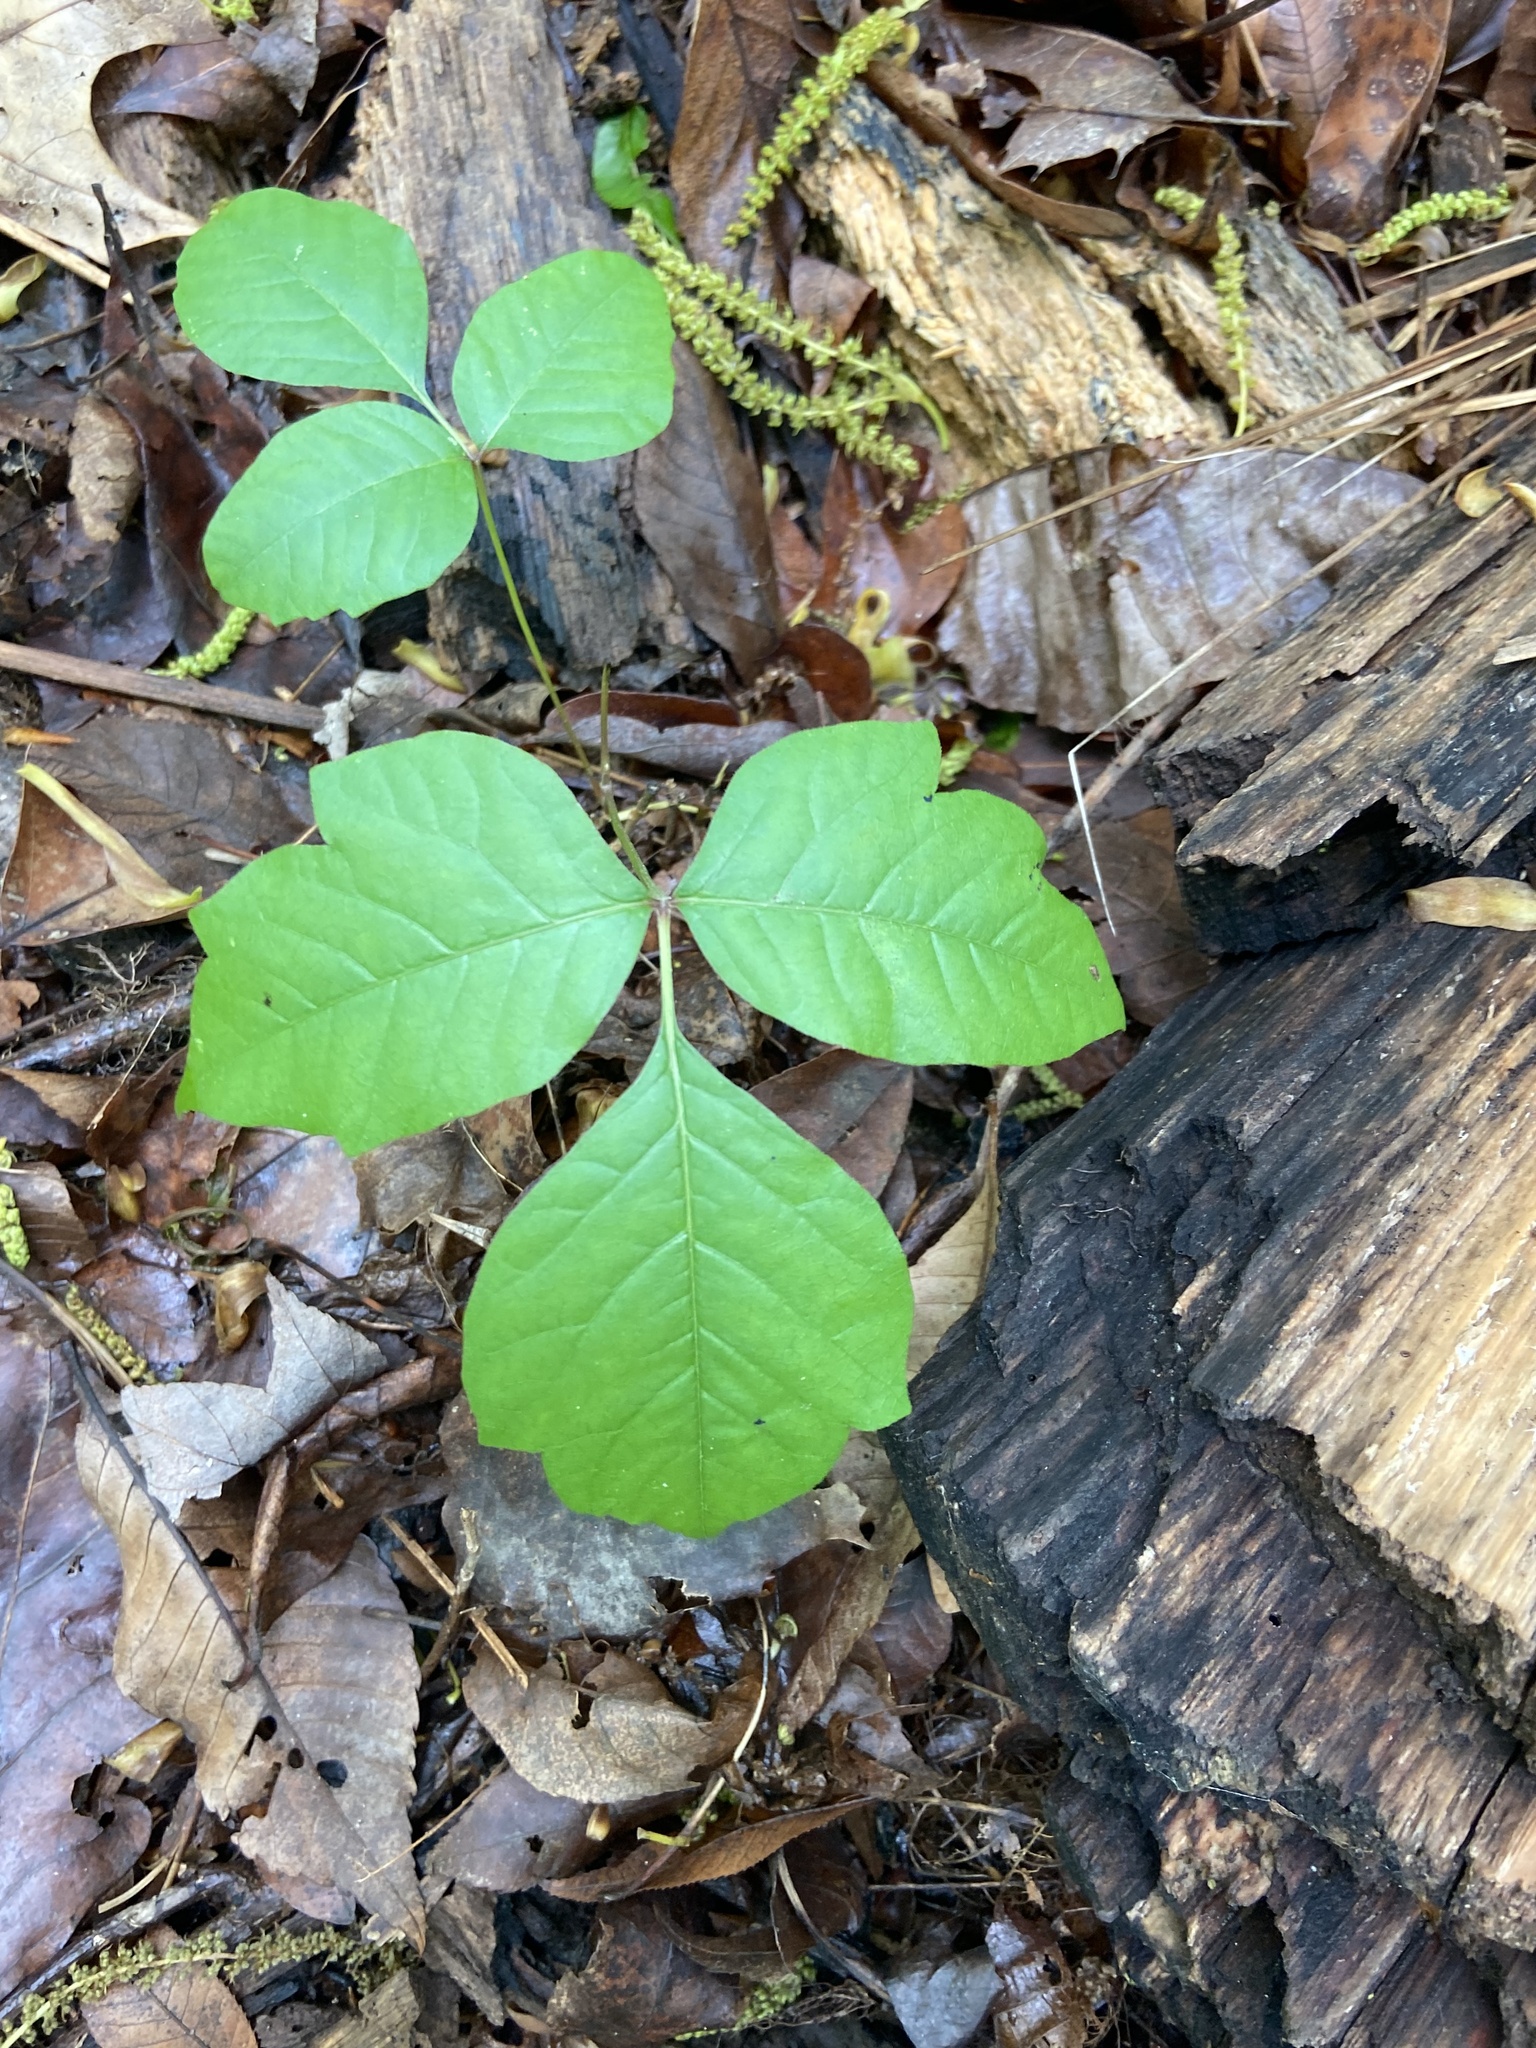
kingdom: Plantae
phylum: Tracheophyta
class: Magnoliopsida
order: Sapindales
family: Anacardiaceae
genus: Toxicodendron
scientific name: Toxicodendron radicans
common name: Poison ivy
